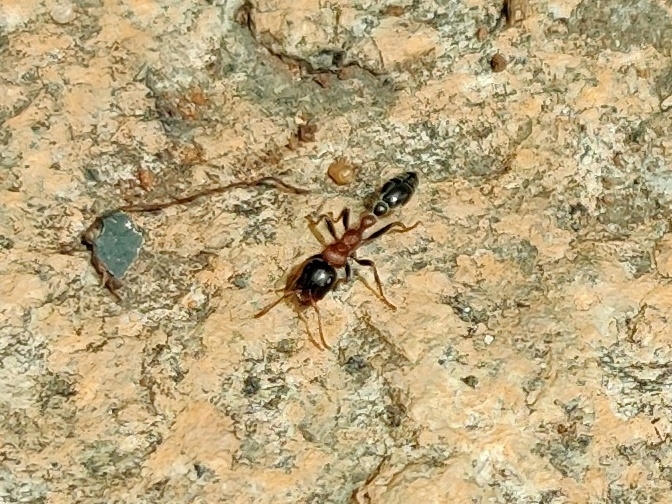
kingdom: Animalia
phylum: Arthropoda
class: Insecta
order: Hymenoptera
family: Formicidae
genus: Tetraponera
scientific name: Tetraponera rufonigra
